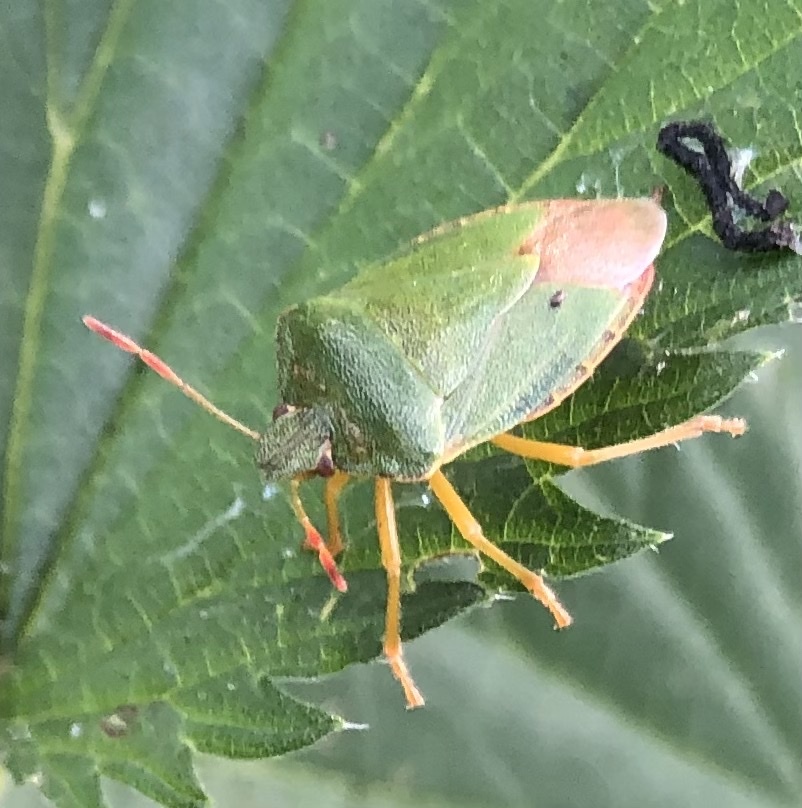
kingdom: Animalia
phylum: Arthropoda
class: Insecta
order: Hemiptera
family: Pentatomidae
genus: Palomena
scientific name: Palomena prasina
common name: Green shieldbug
